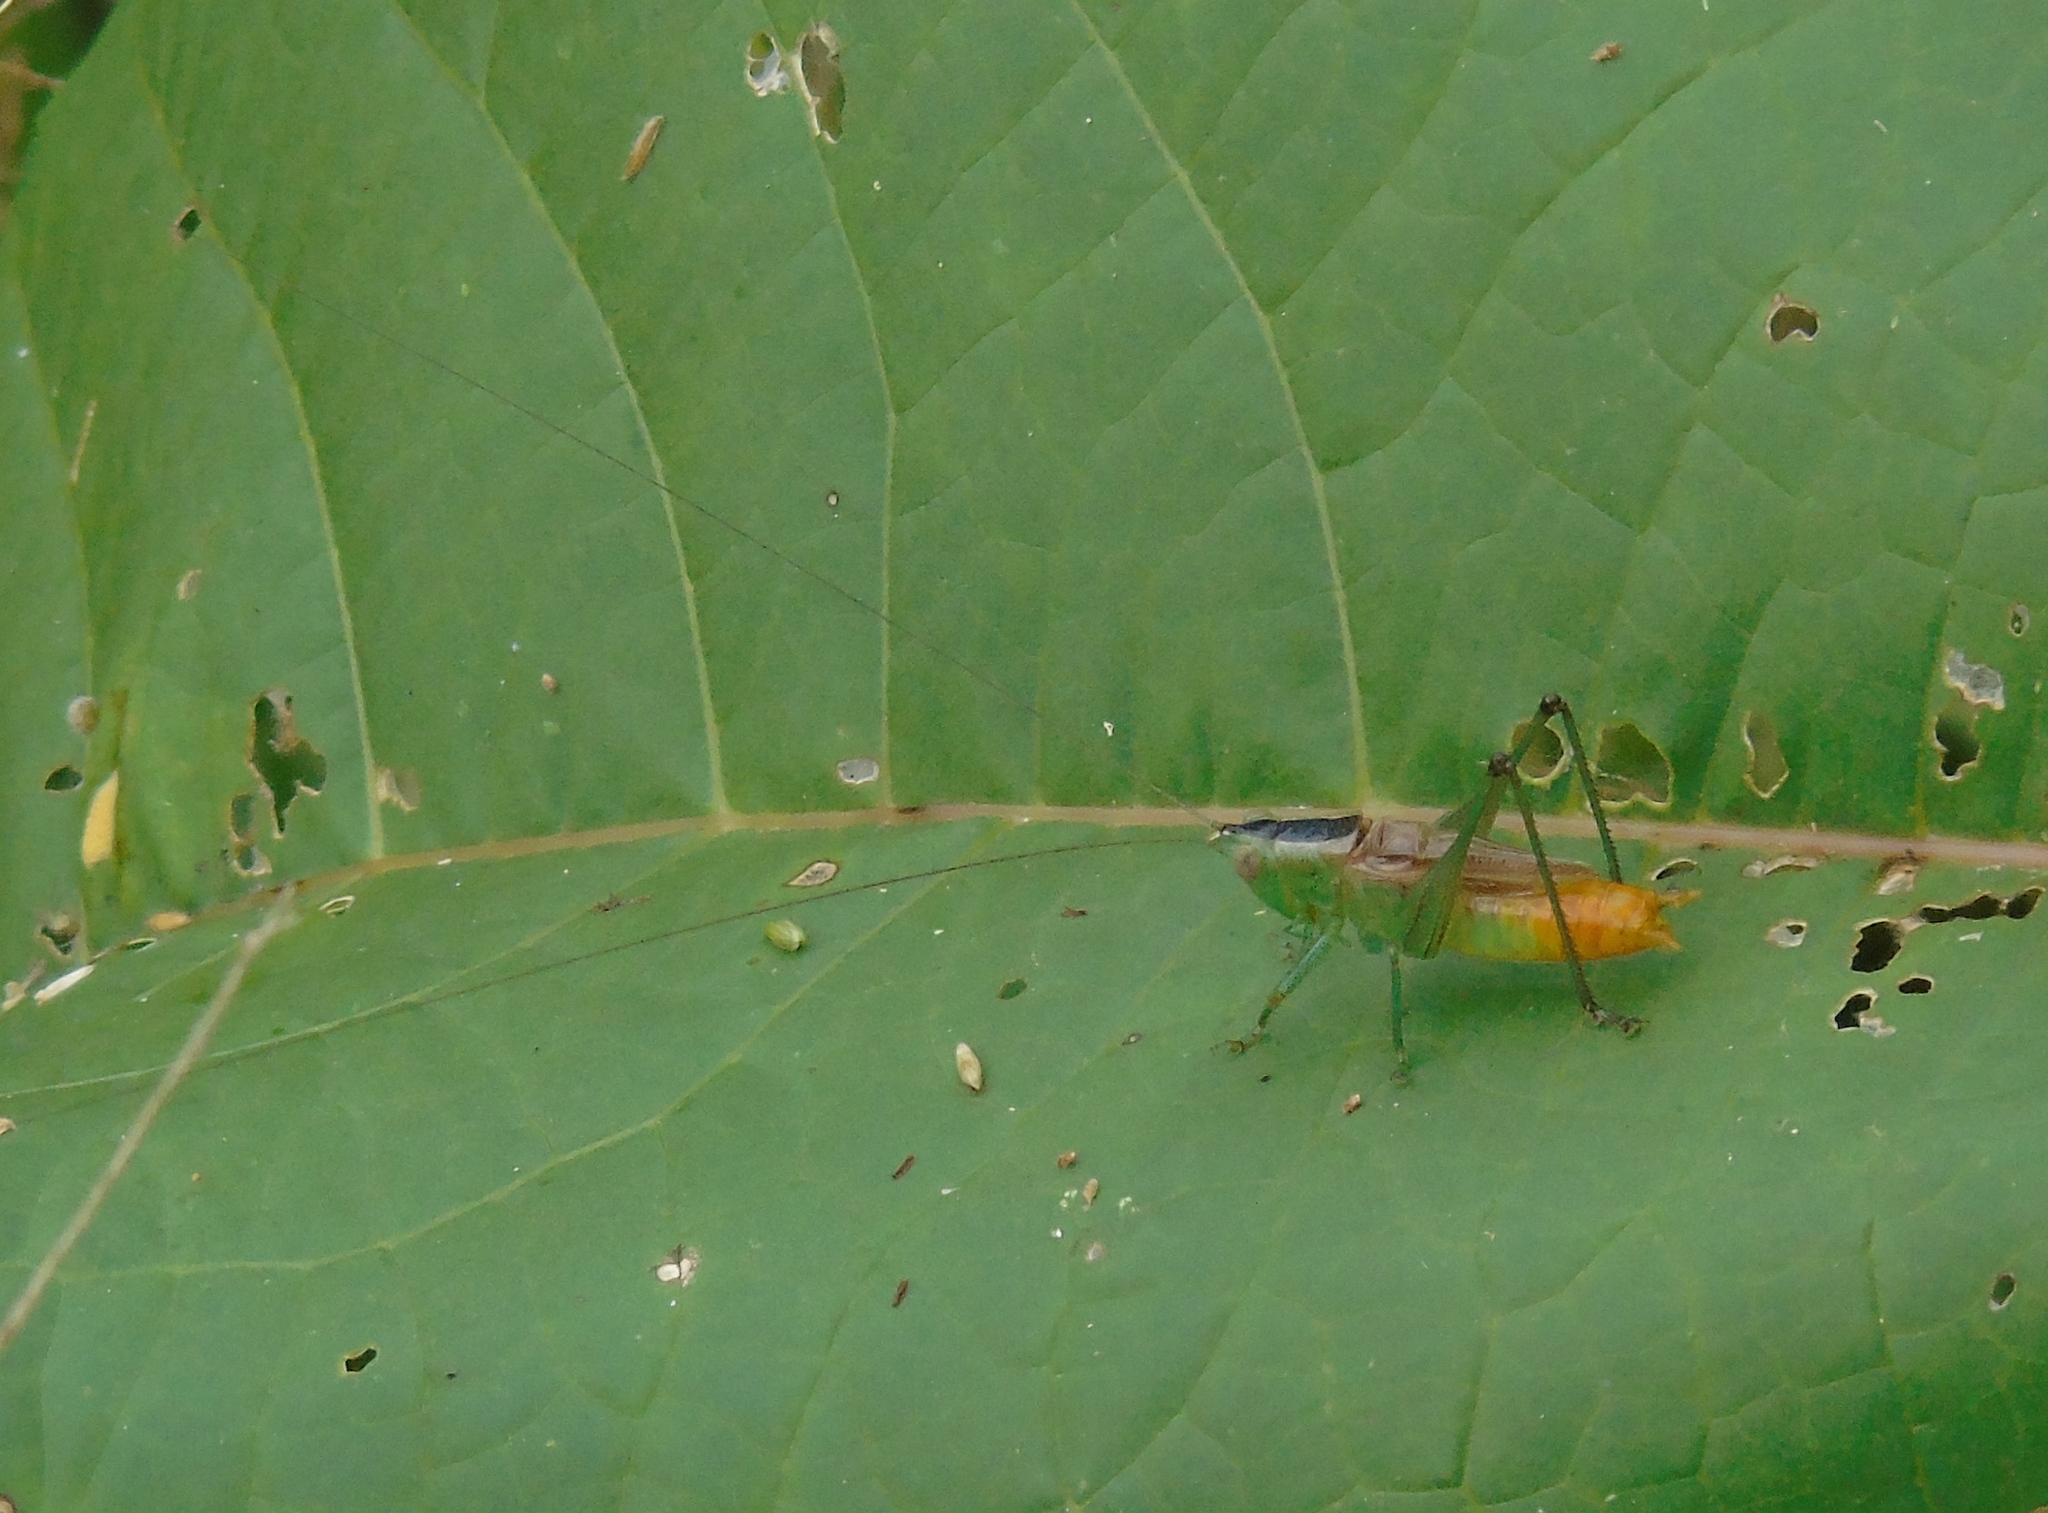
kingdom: Animalia
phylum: Arthropoda
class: Insecta
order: Orthoptera
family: Tettigoniidae
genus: Conocephalus
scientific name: Conocephalus ictus
